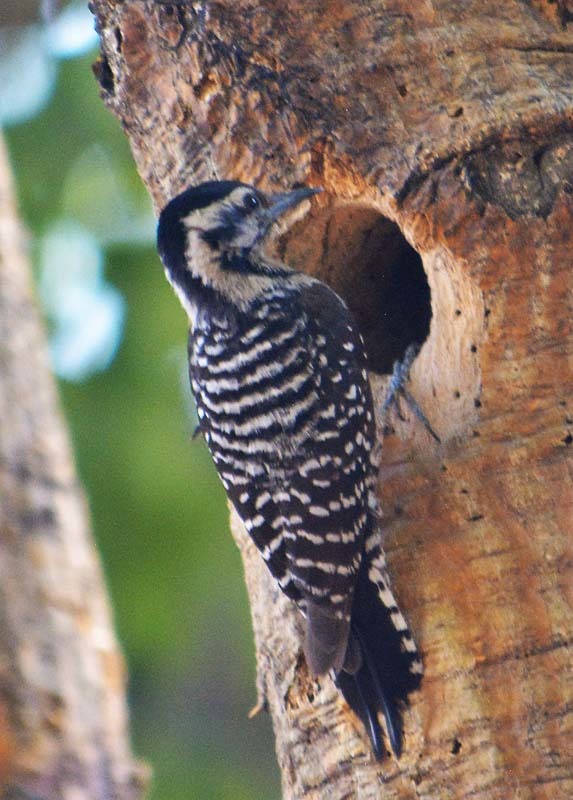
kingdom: Animalia
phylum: Chordata
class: Aves
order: Piciformes
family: Picidae
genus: Dryobates
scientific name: Dryobates scalaris
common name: Ladder-backed woodpecker
